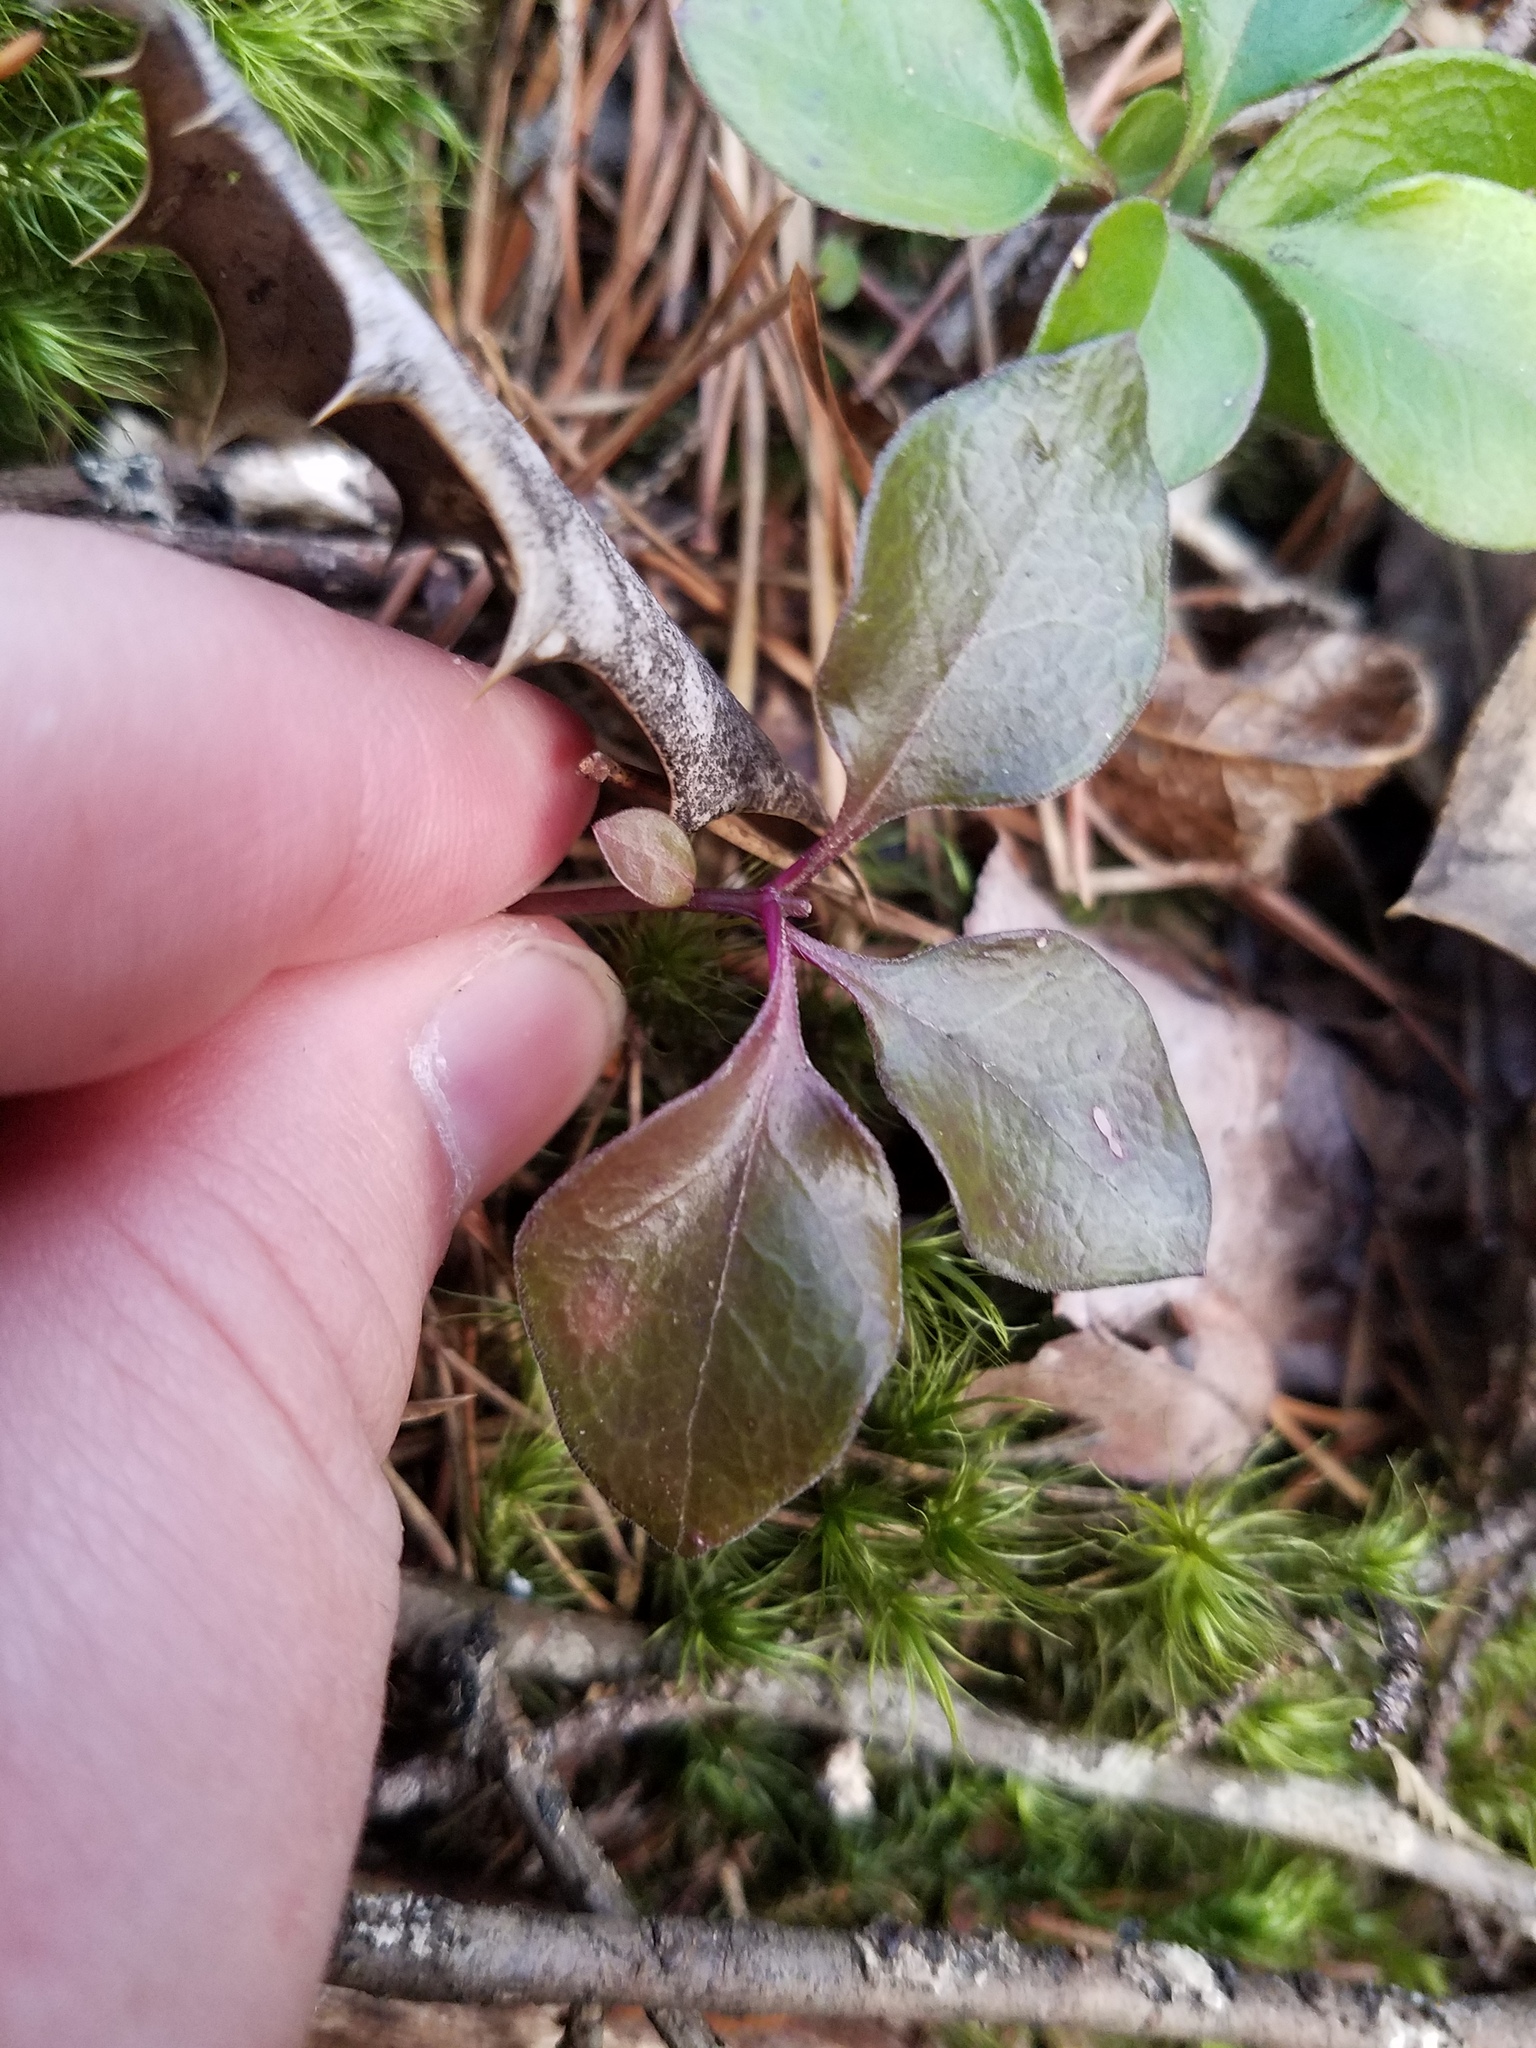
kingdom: Plantae
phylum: Tracheophyta
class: Magnoliopsida
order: Fabales
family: Polygalaceae
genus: Polygaloides
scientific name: Polygaloides paucifolia
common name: Bird-on-the-wing
